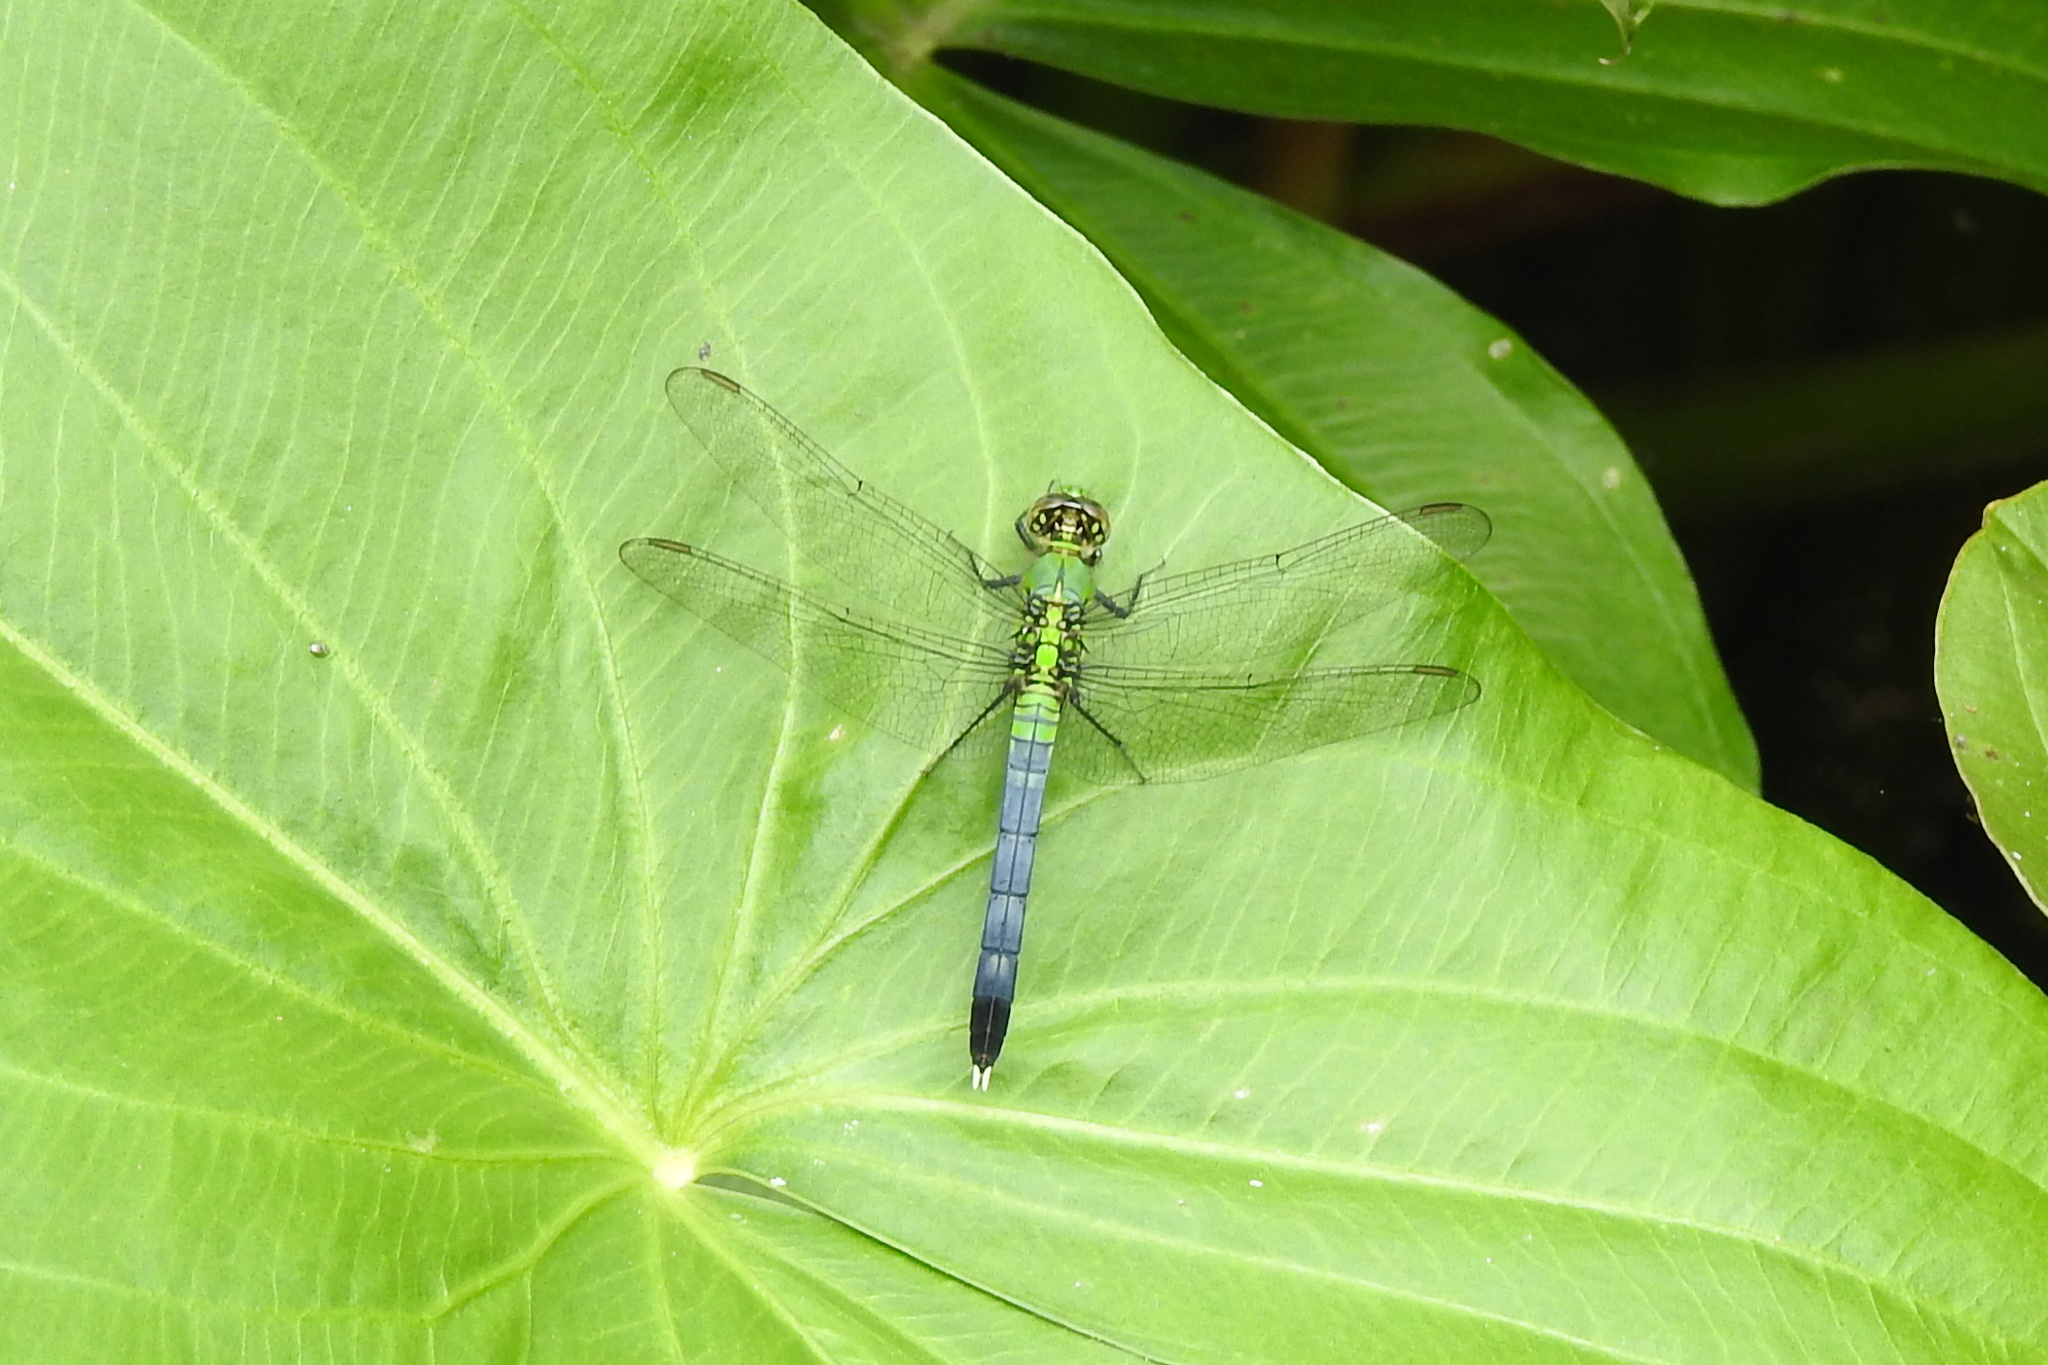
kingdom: Animalia
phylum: Arthropoda
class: Insecta
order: Odonata
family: Libellulidae
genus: Erythemis
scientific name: Erythemis simplicicollis
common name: Eastern pondhawk
